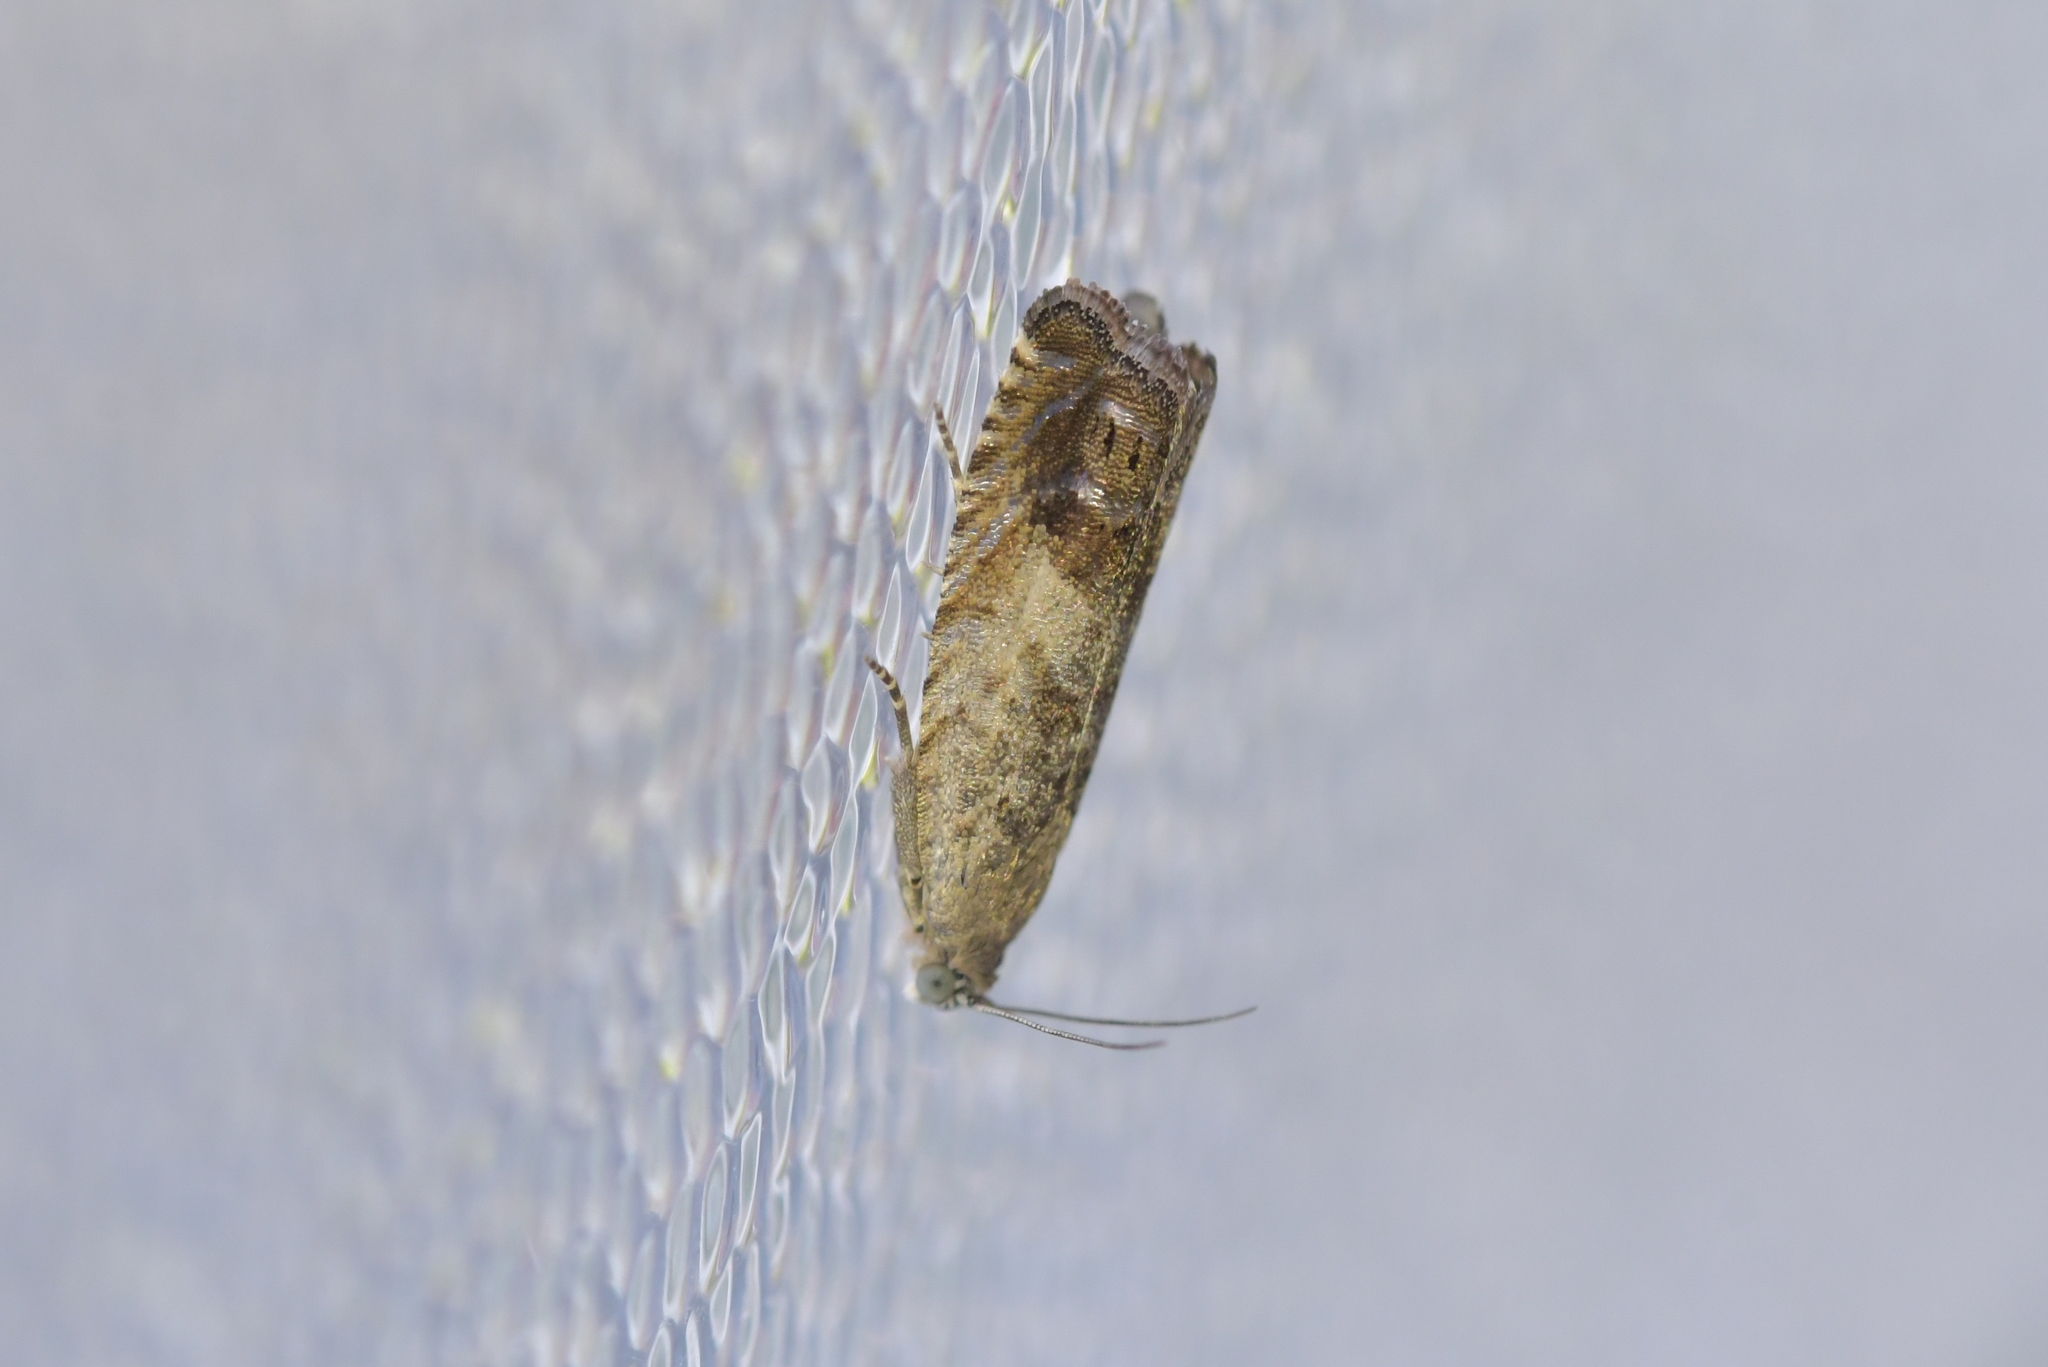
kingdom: Animalia
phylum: Arthropoda
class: Insecta
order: Lepidoptera
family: Tortricidae
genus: Cydia
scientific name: Cydia succedana
